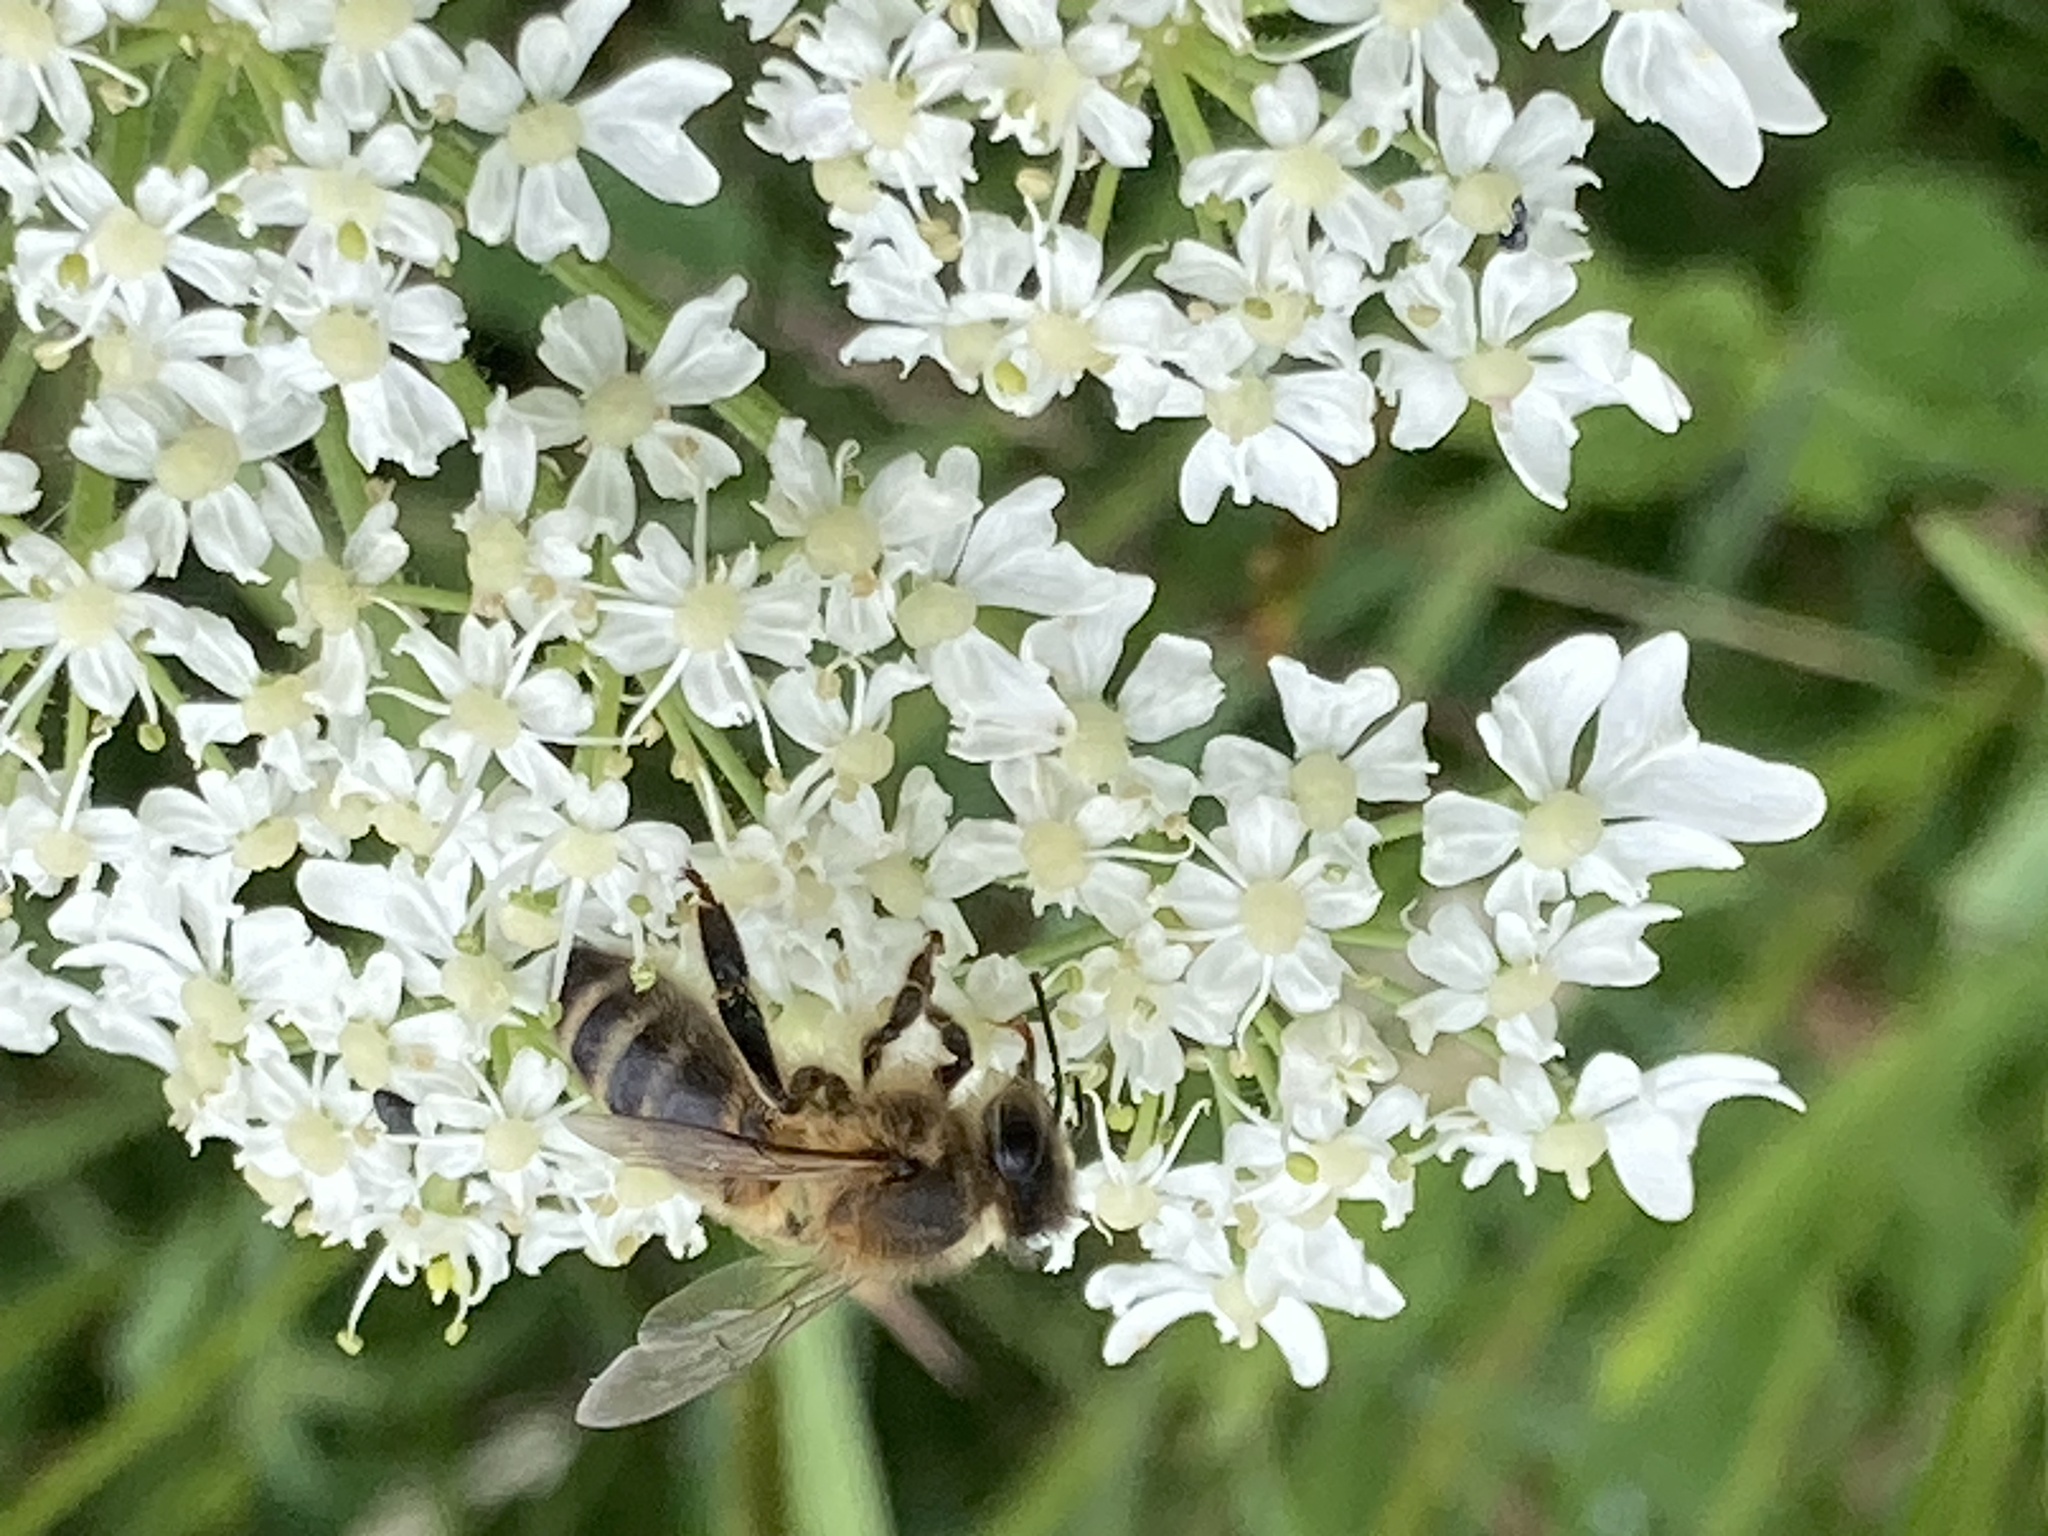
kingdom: Animalia
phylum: Arthropoda
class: Insecta
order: Hymenoptera
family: Apidae
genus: Apis
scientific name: Apis mellifera
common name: Honey bee
